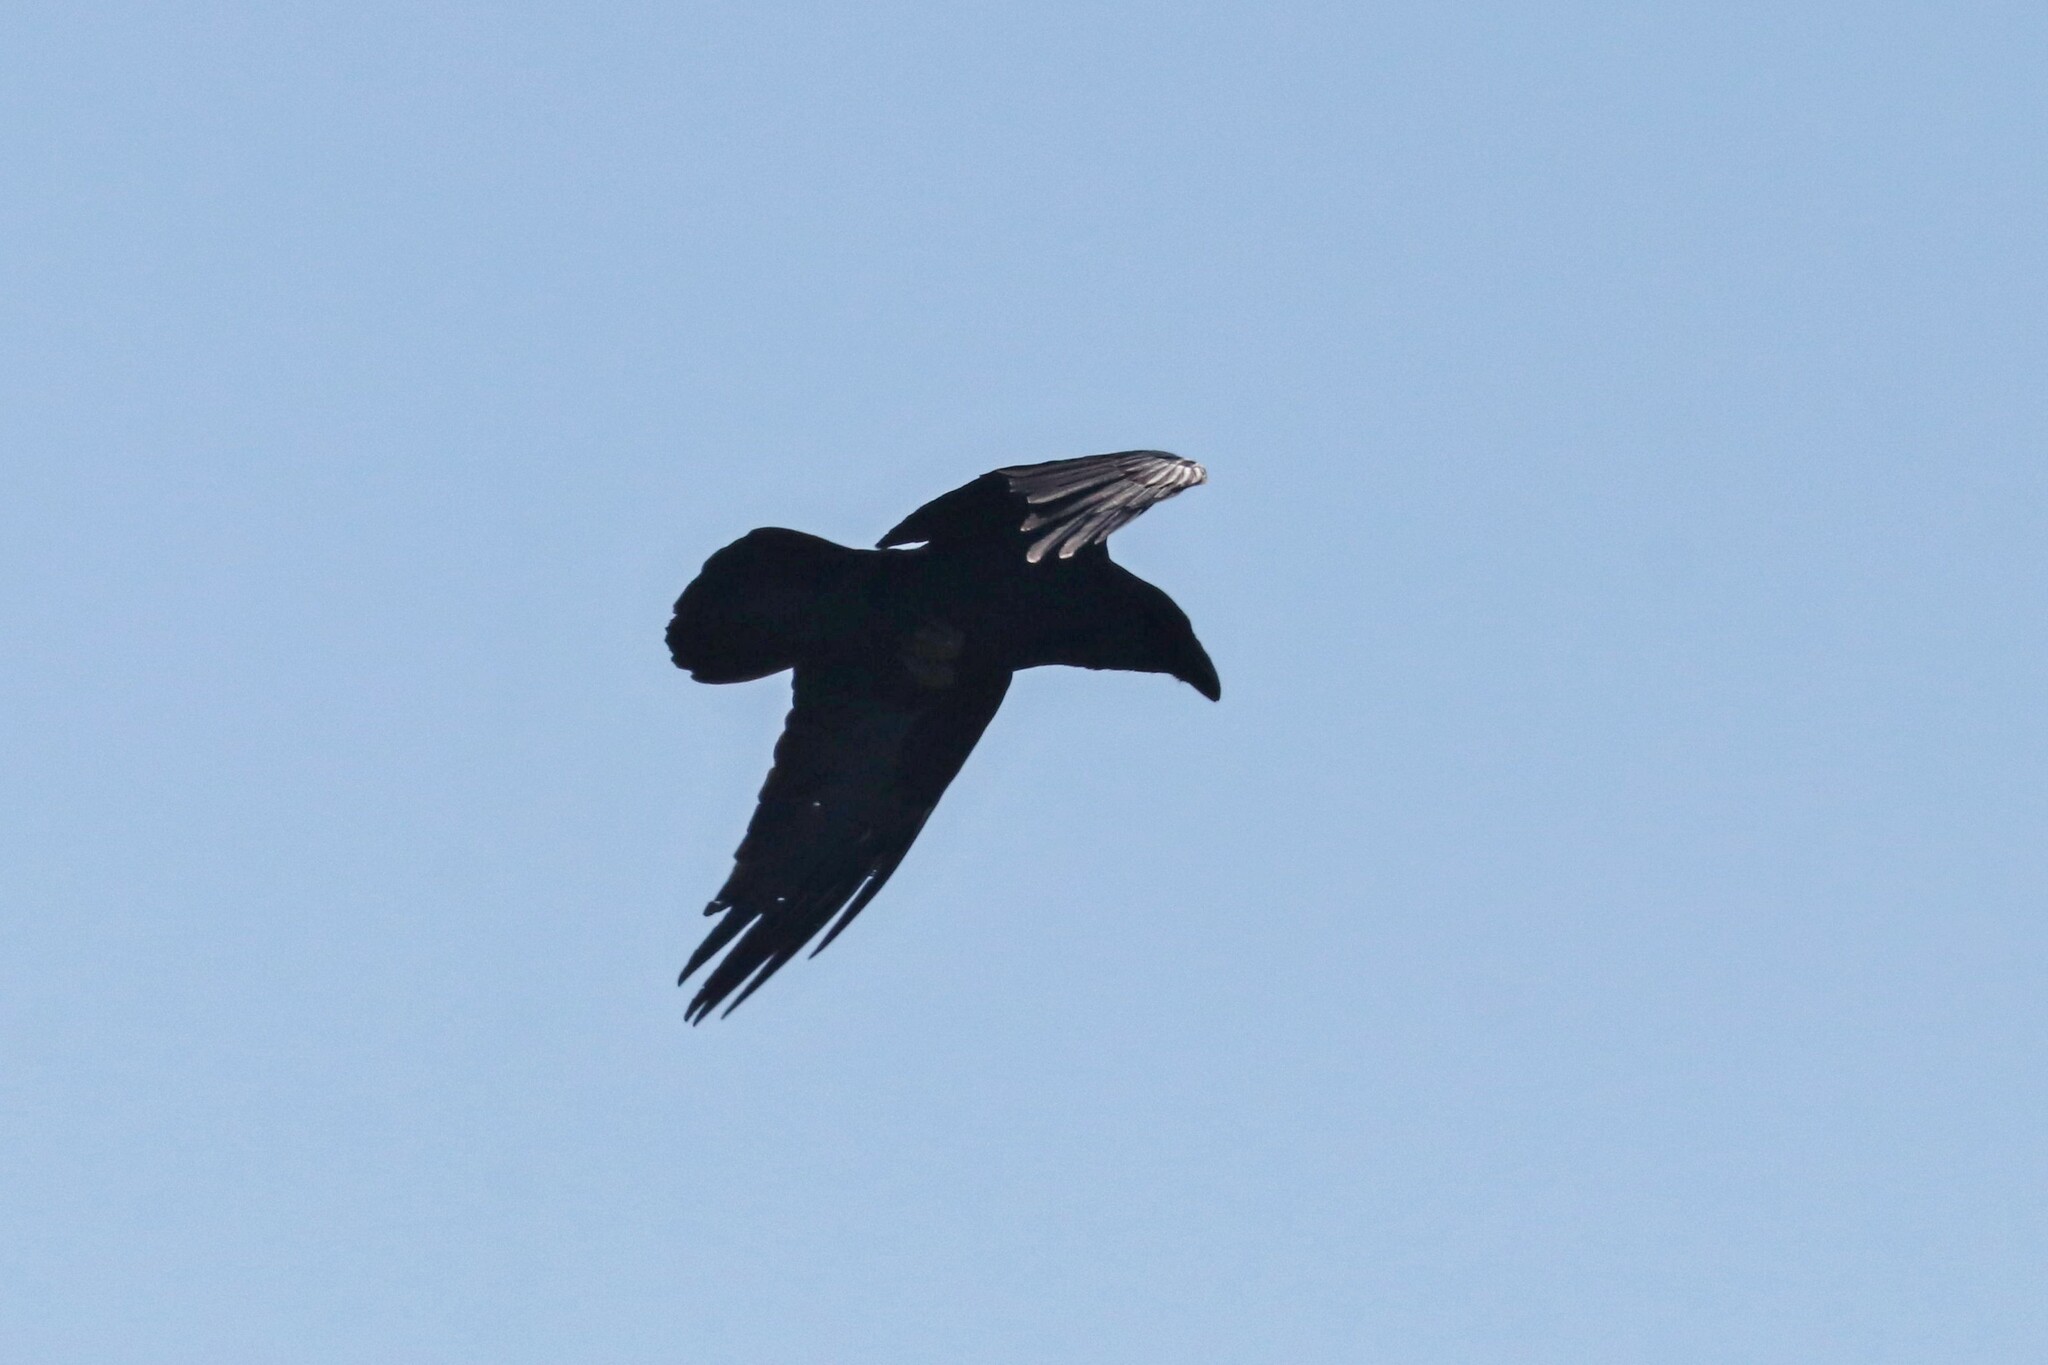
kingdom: Animalia
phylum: Chordata
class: Aves
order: Passeriformes
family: Corvidae
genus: Corvus
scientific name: Corvus corax
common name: Common raven
